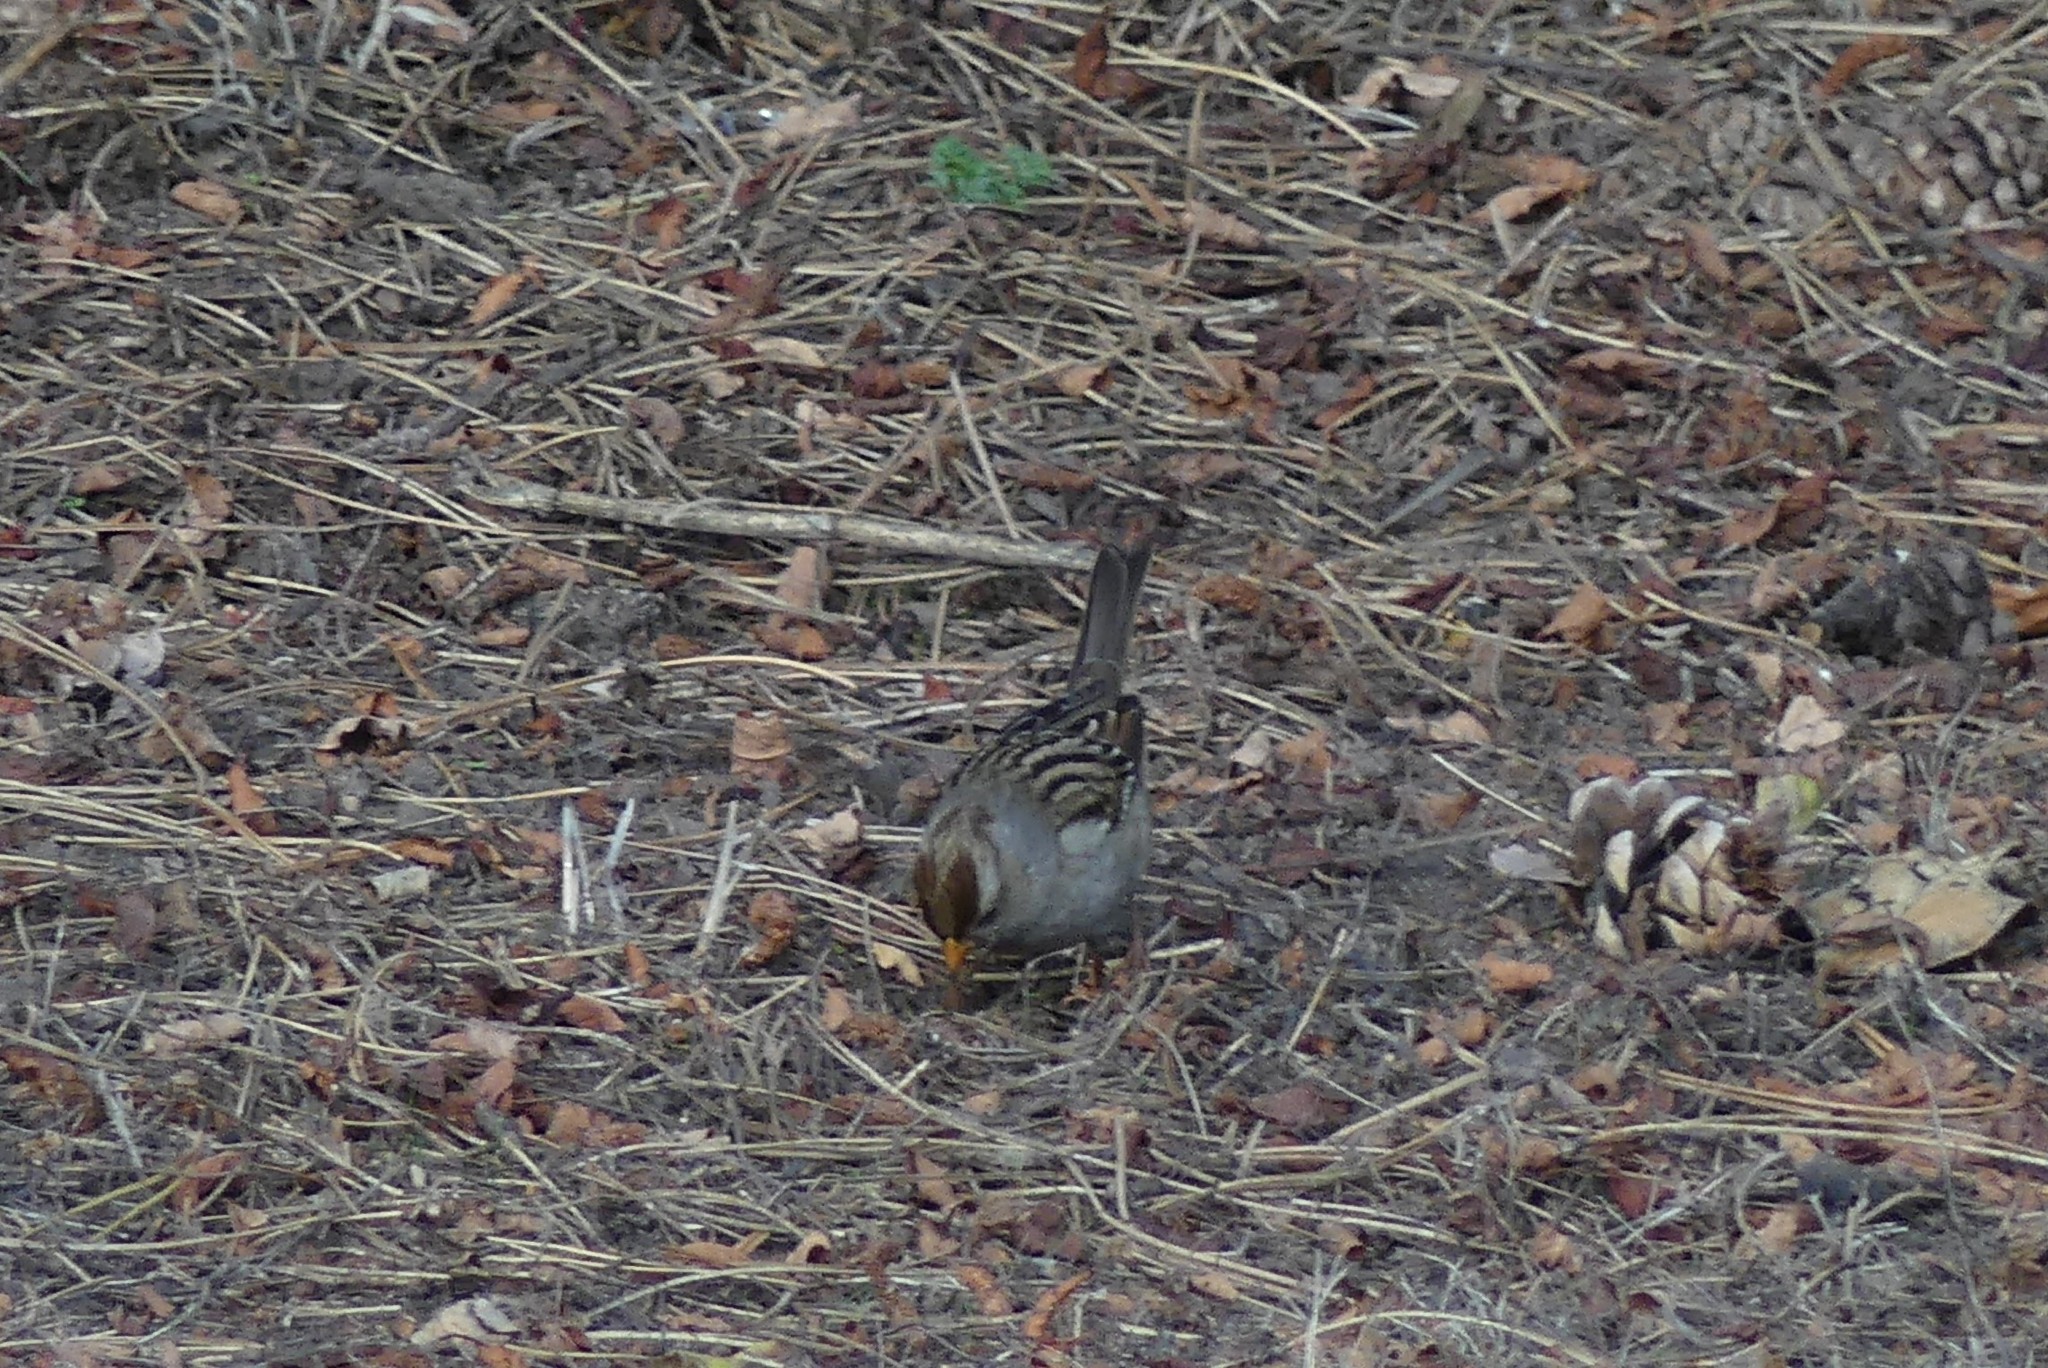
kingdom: Animalia
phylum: Chordata
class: Aves
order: Passeriformes
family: Passerellidae
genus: Zonotrichia
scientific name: Zonotrichia leucophrys
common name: White-crowned sparrow
